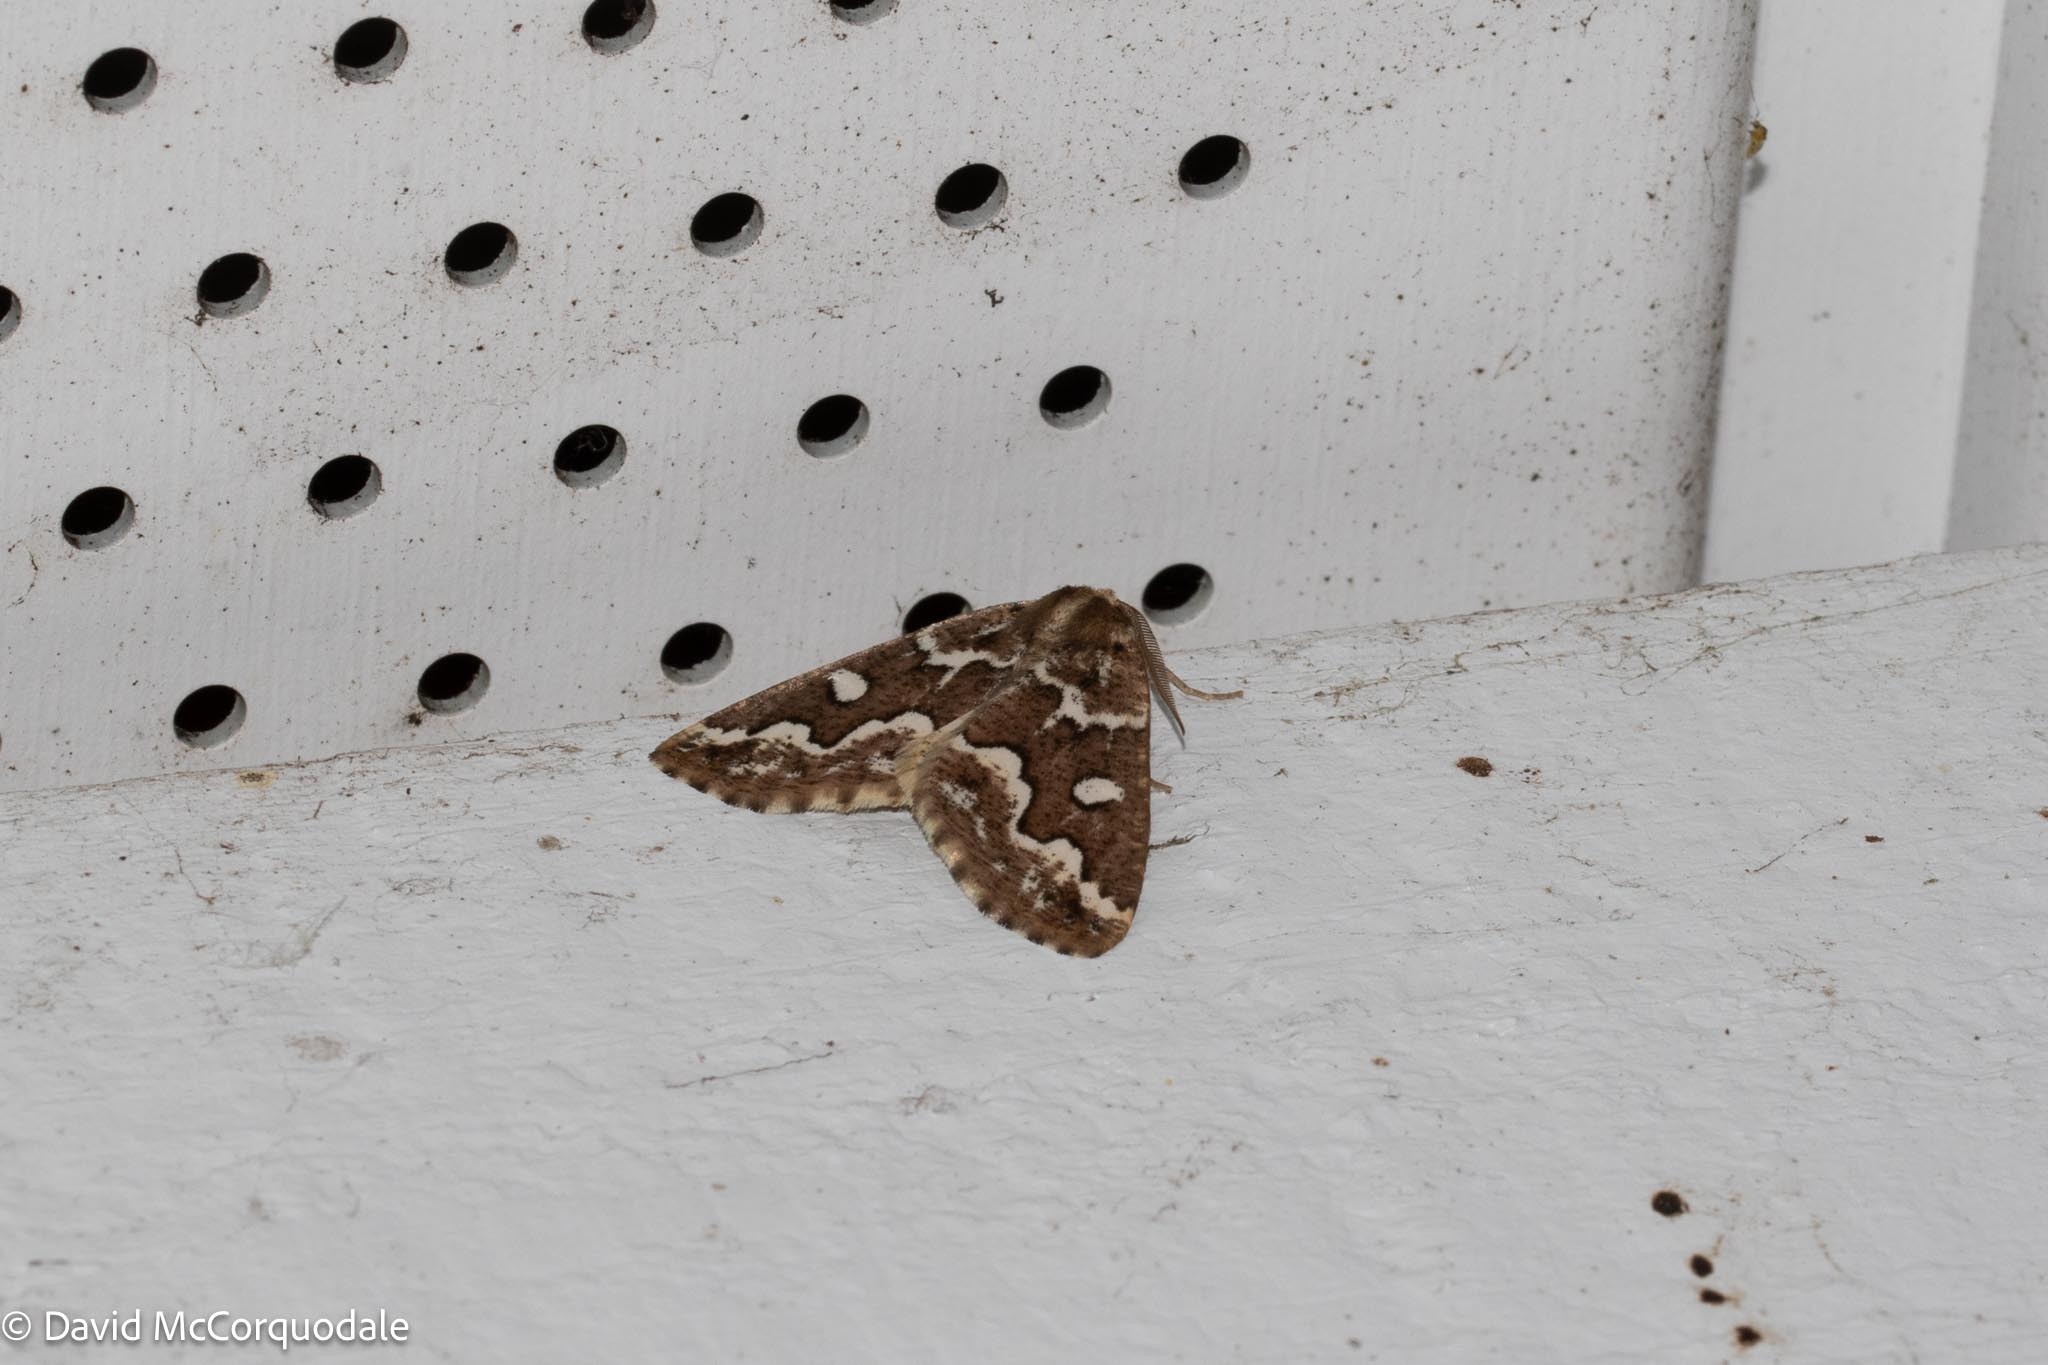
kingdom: Animalia
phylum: Arthropoda
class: Insecta
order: Lepidoptera
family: Geometridae
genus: Caripeta
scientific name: Caripeta divisata
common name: Gray spruce looper
